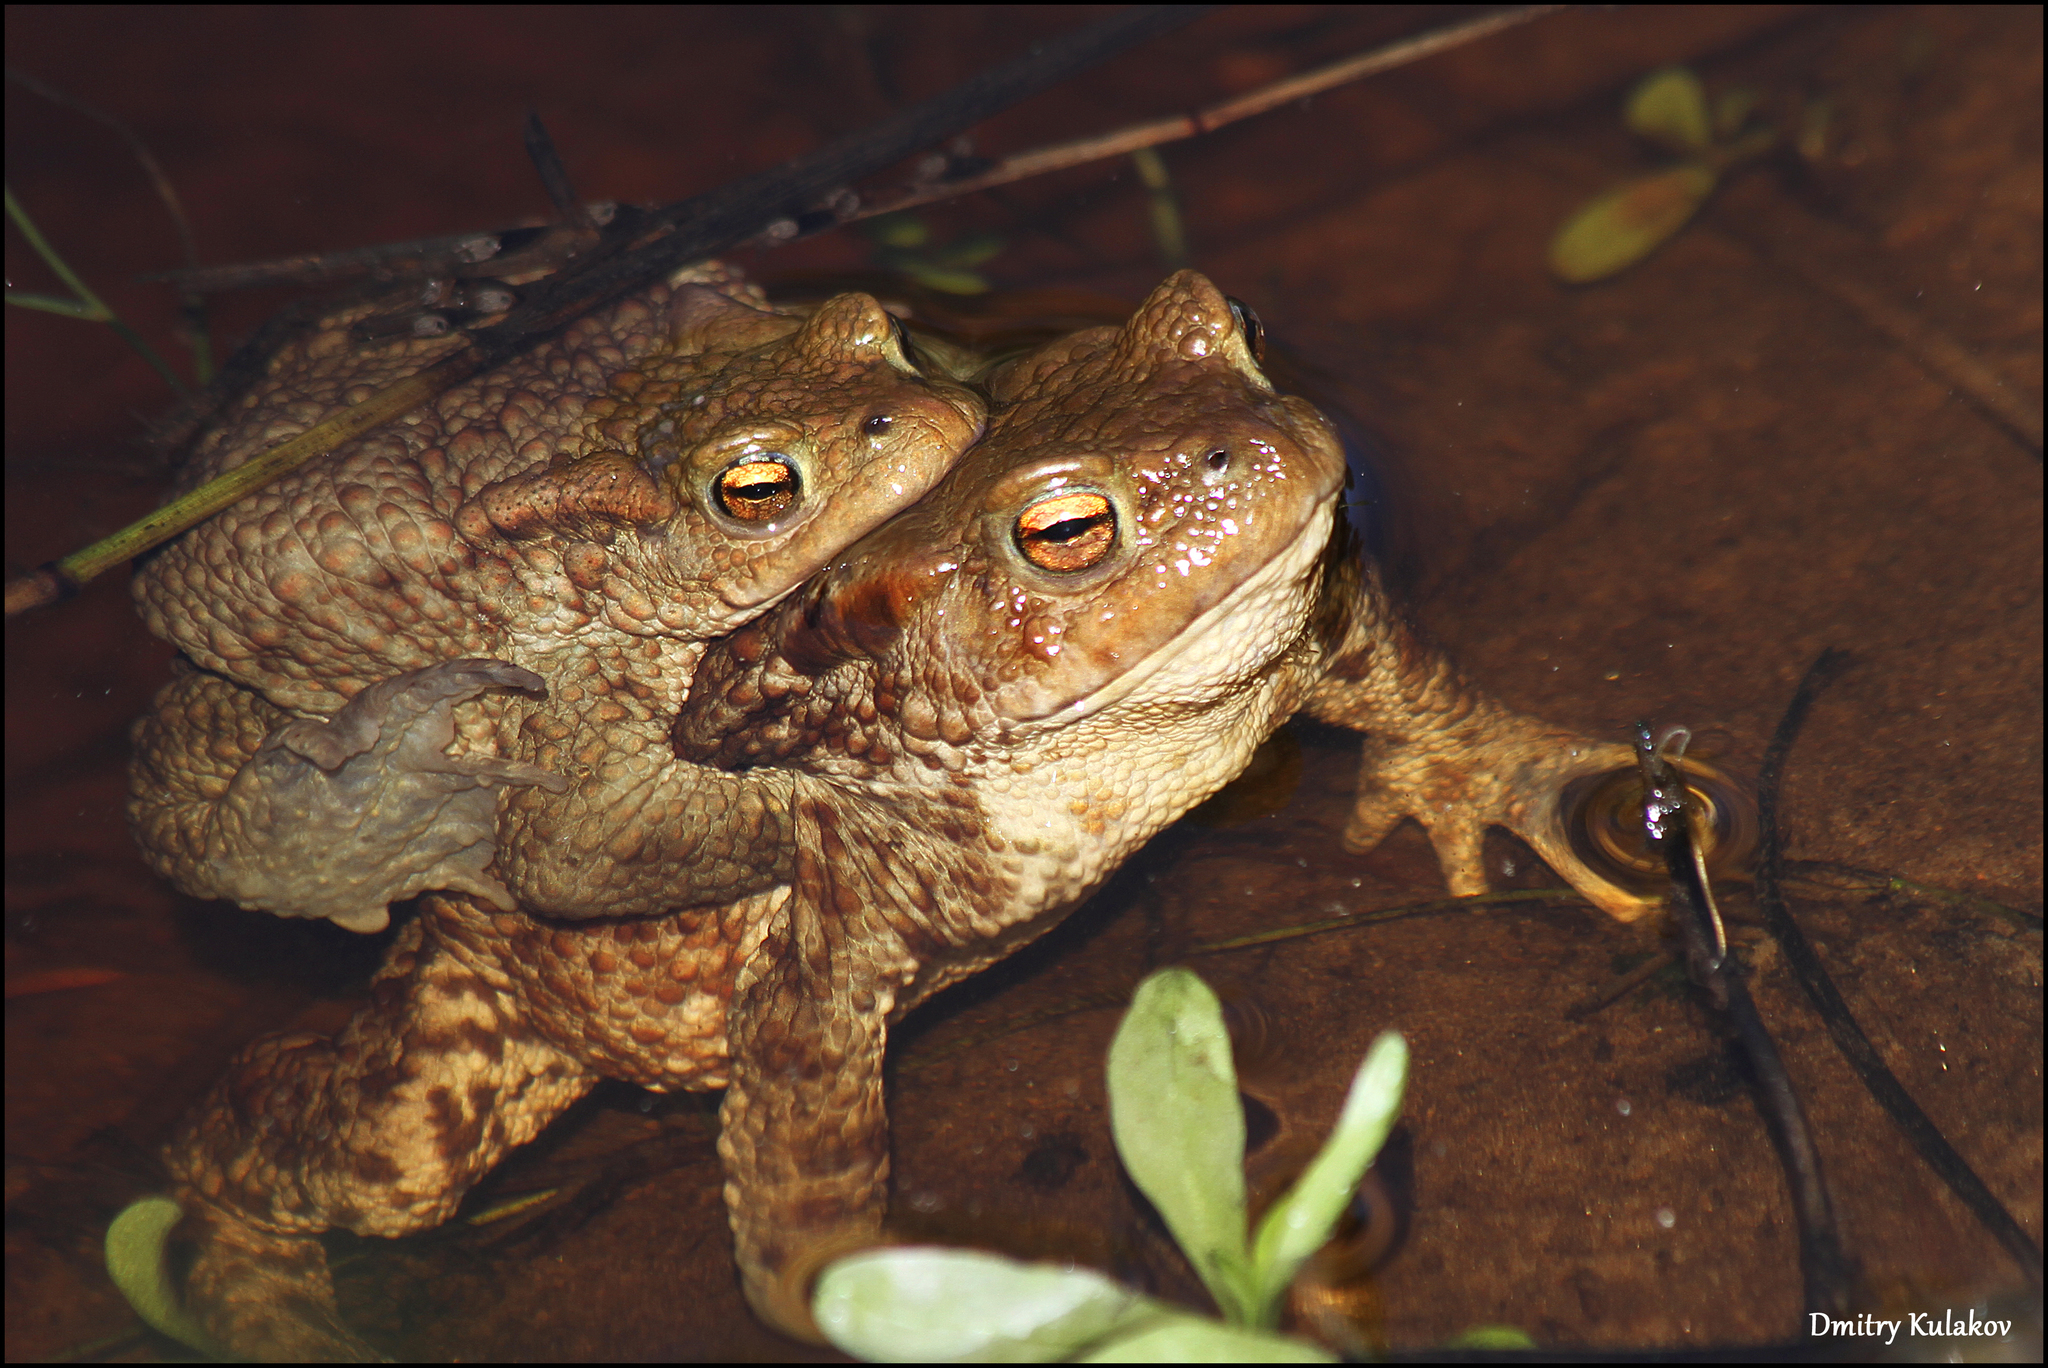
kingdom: Animalia
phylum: Chordata
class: Amphibia
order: Anura
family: Bufonidae
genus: Bufo
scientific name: Bufo bufo
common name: Common toad
